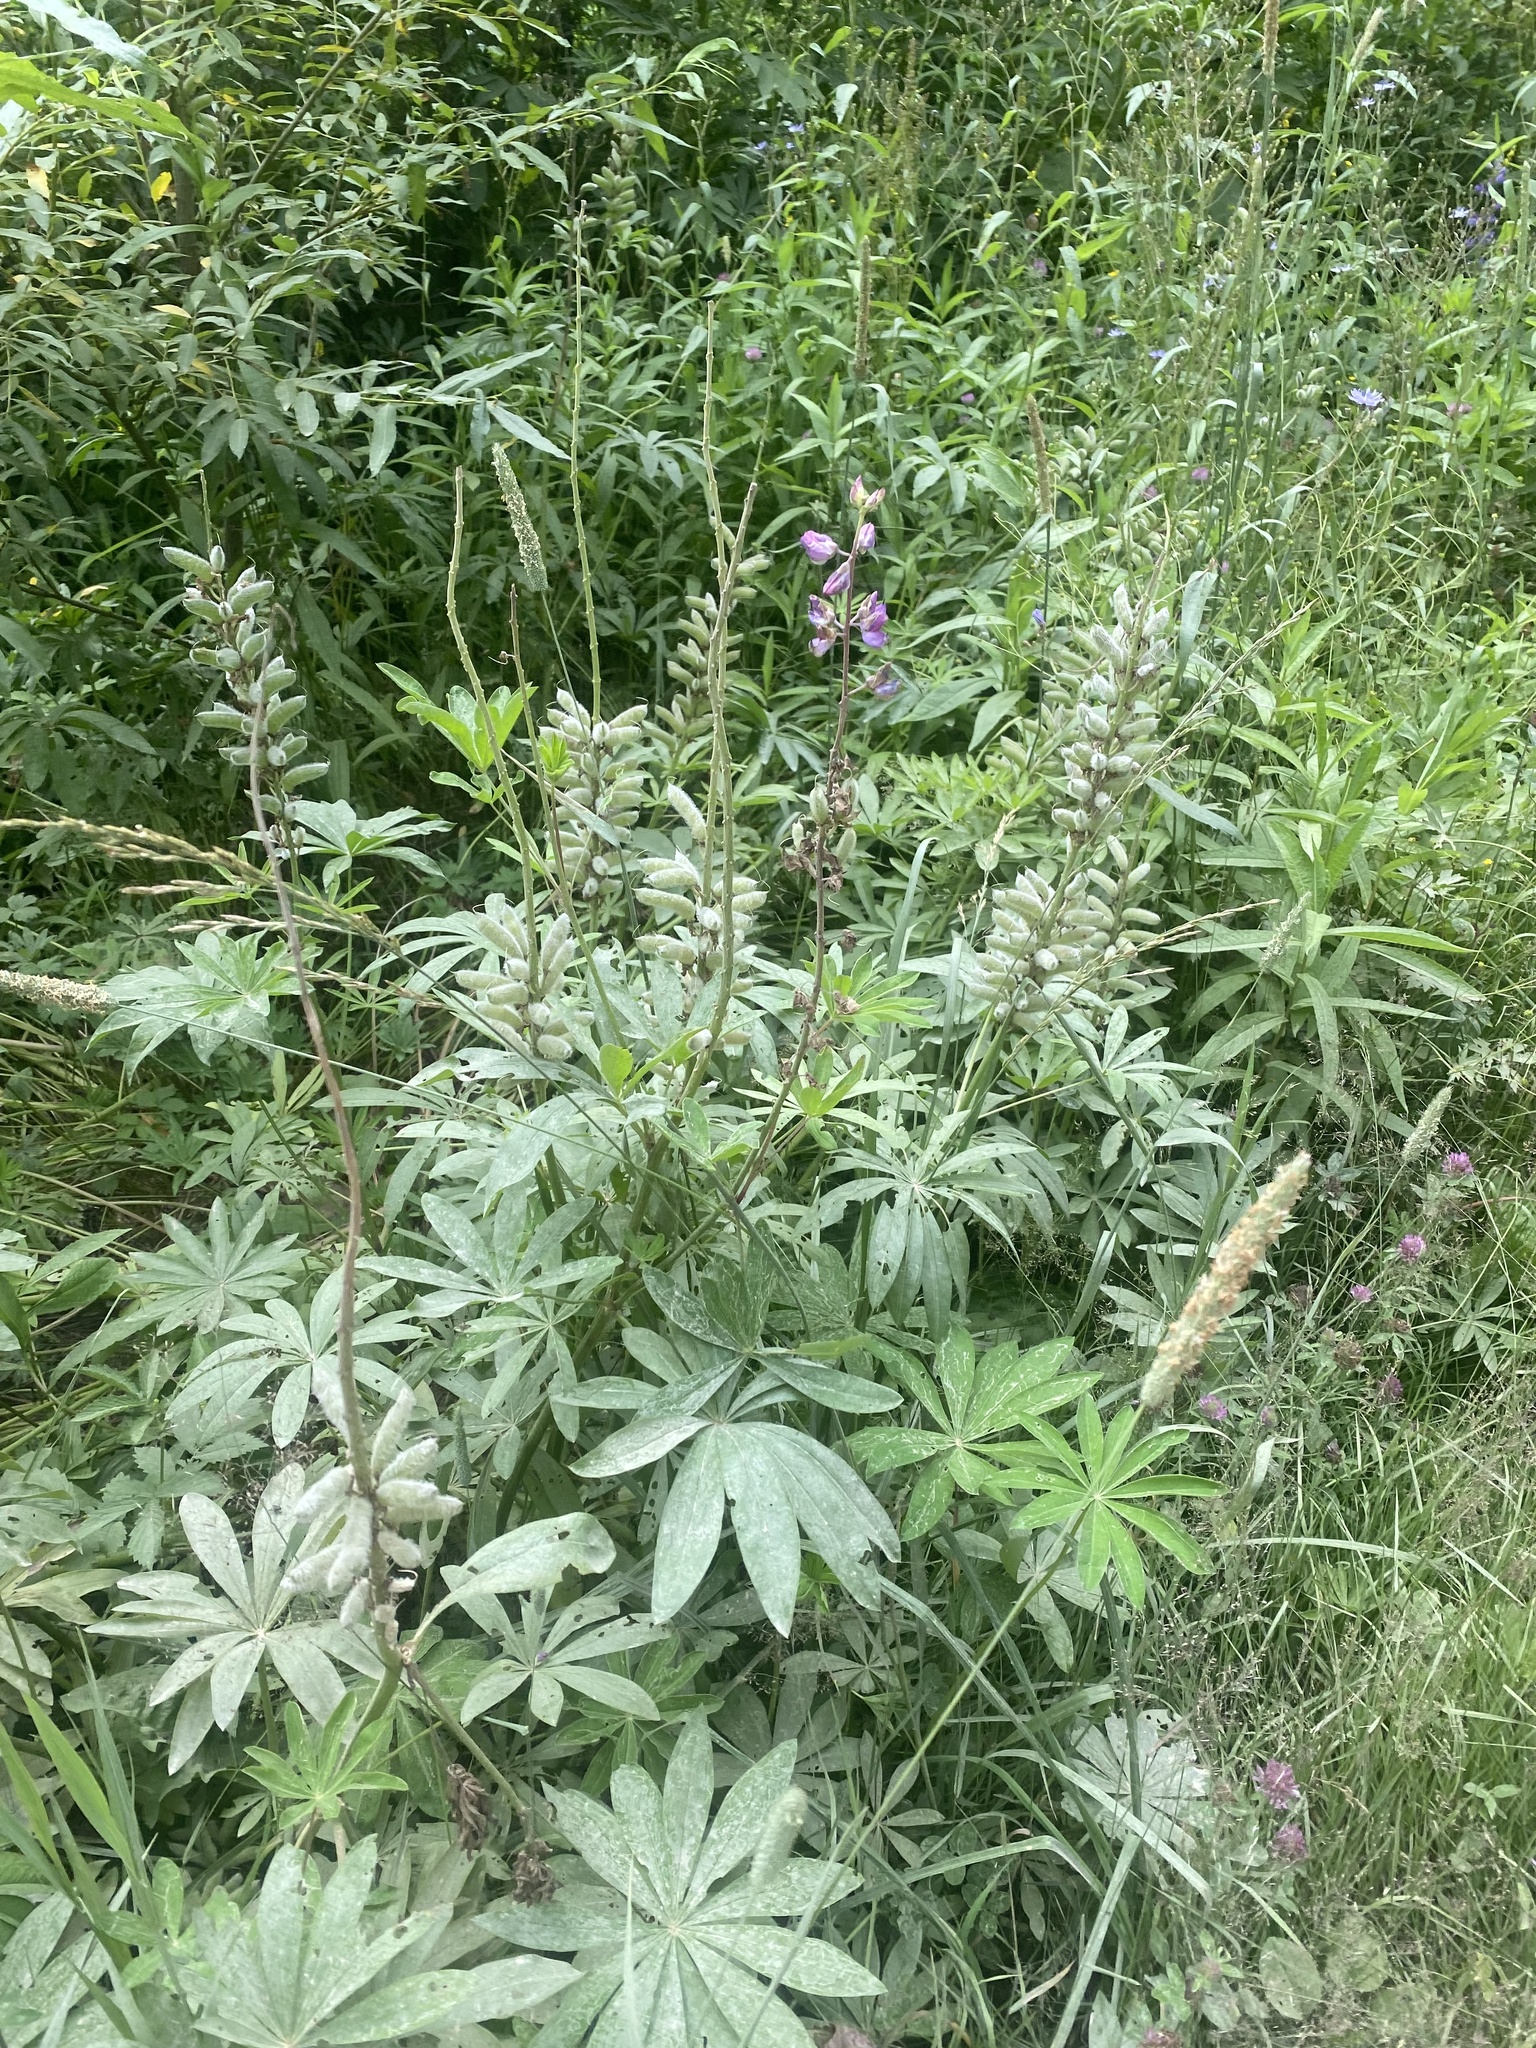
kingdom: Plantae
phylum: Tracheophyta
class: Magnoliopsida
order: Fabales
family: Fabaceae
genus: Lupinus
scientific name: Lupinus polyphyllus
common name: Garden lupin
